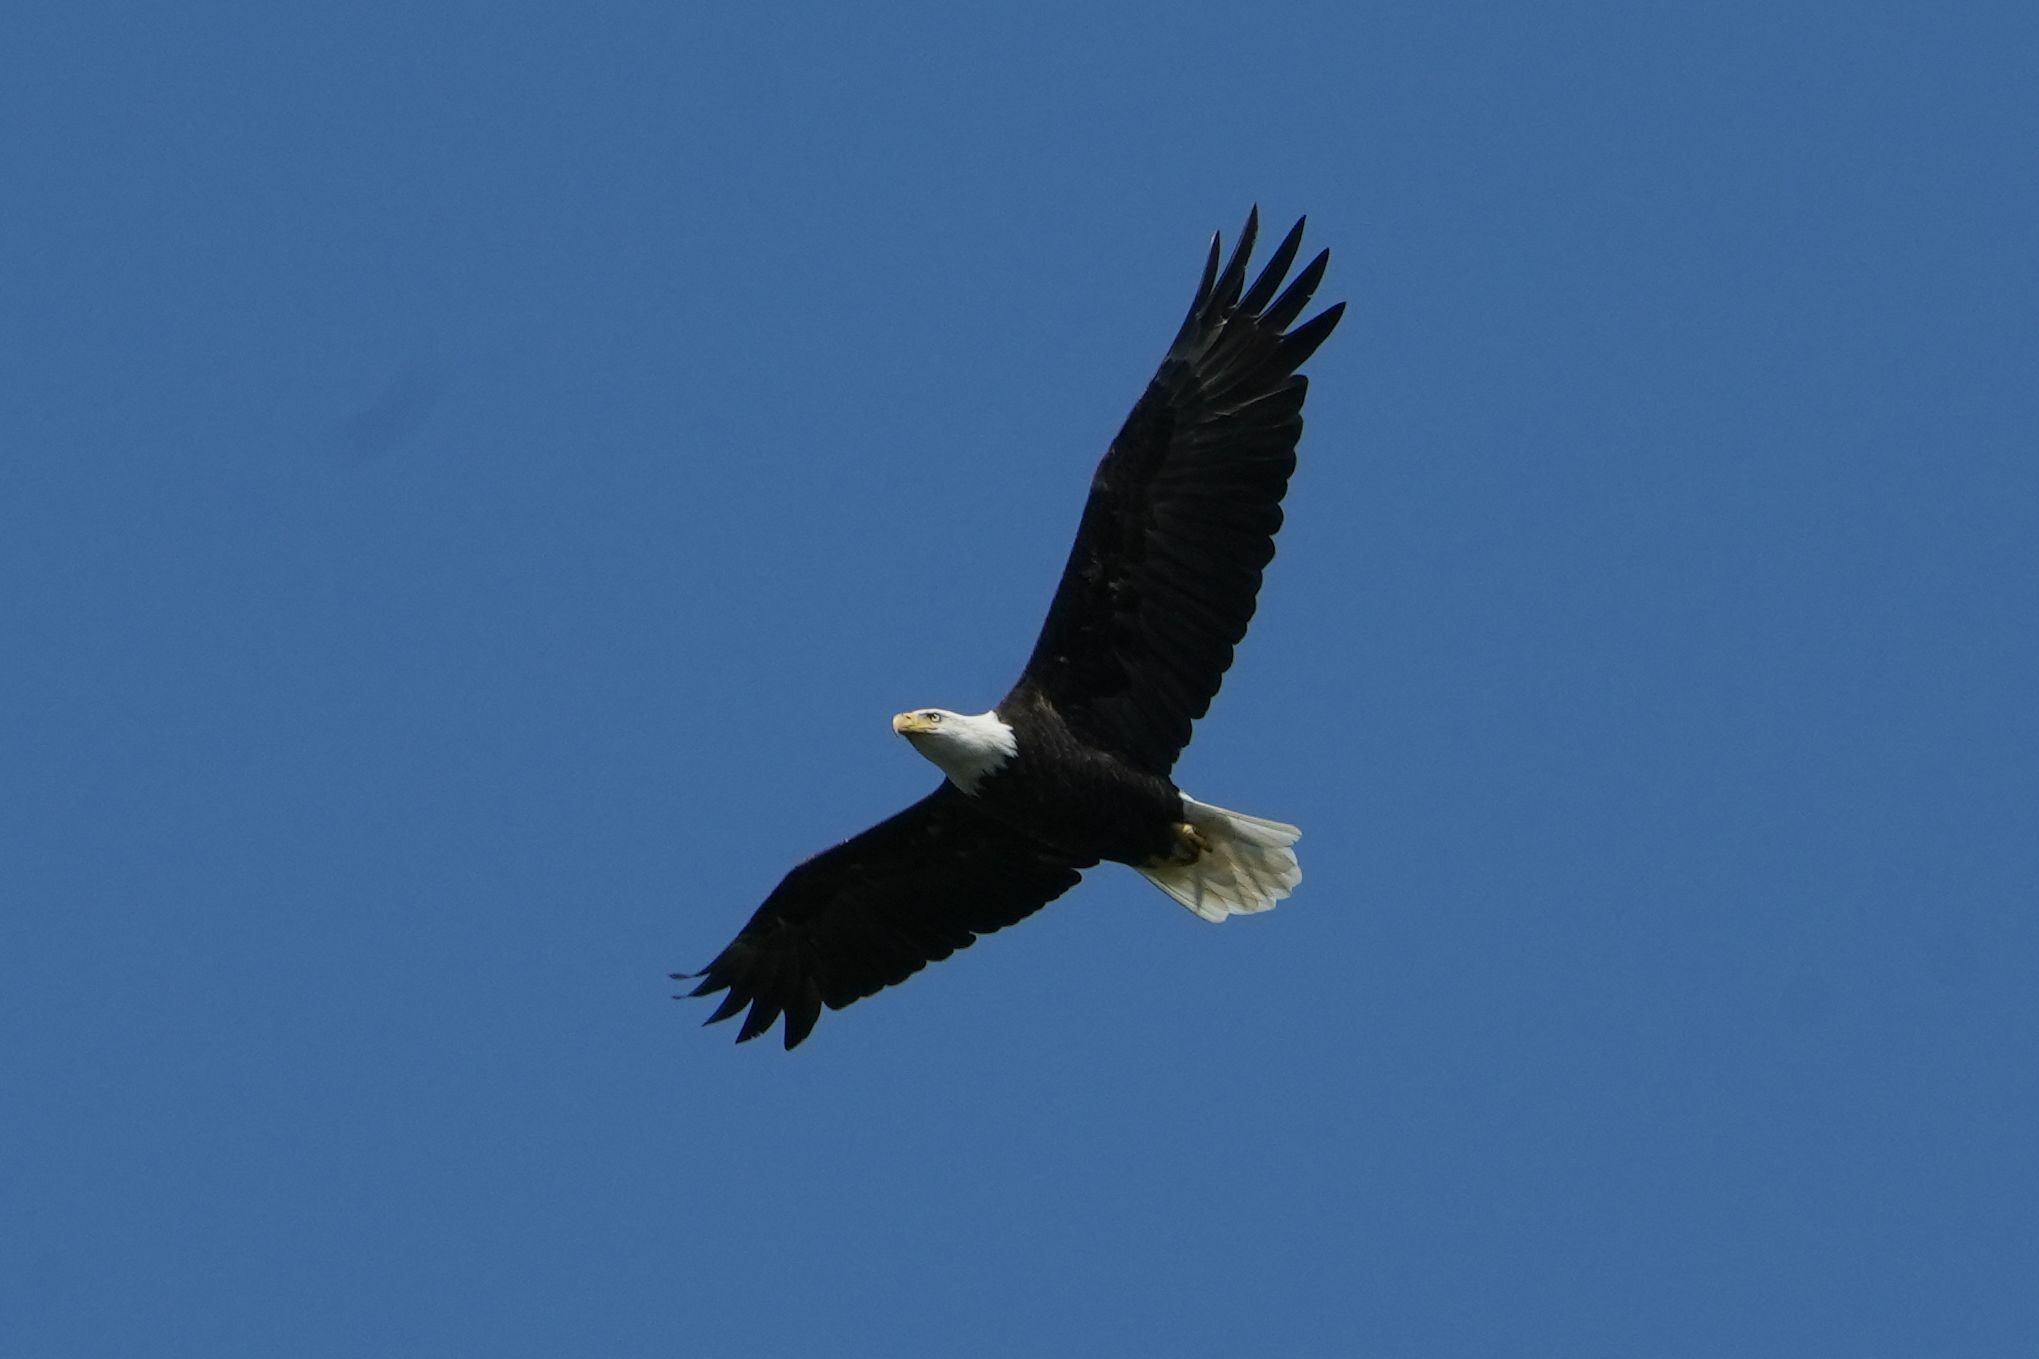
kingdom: Animalia
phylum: Chordata
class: Aves
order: Accipitriformes
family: Accipitridae
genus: Haliaeetus
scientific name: Haliaeetus leucocephalus
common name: Bald eagle
